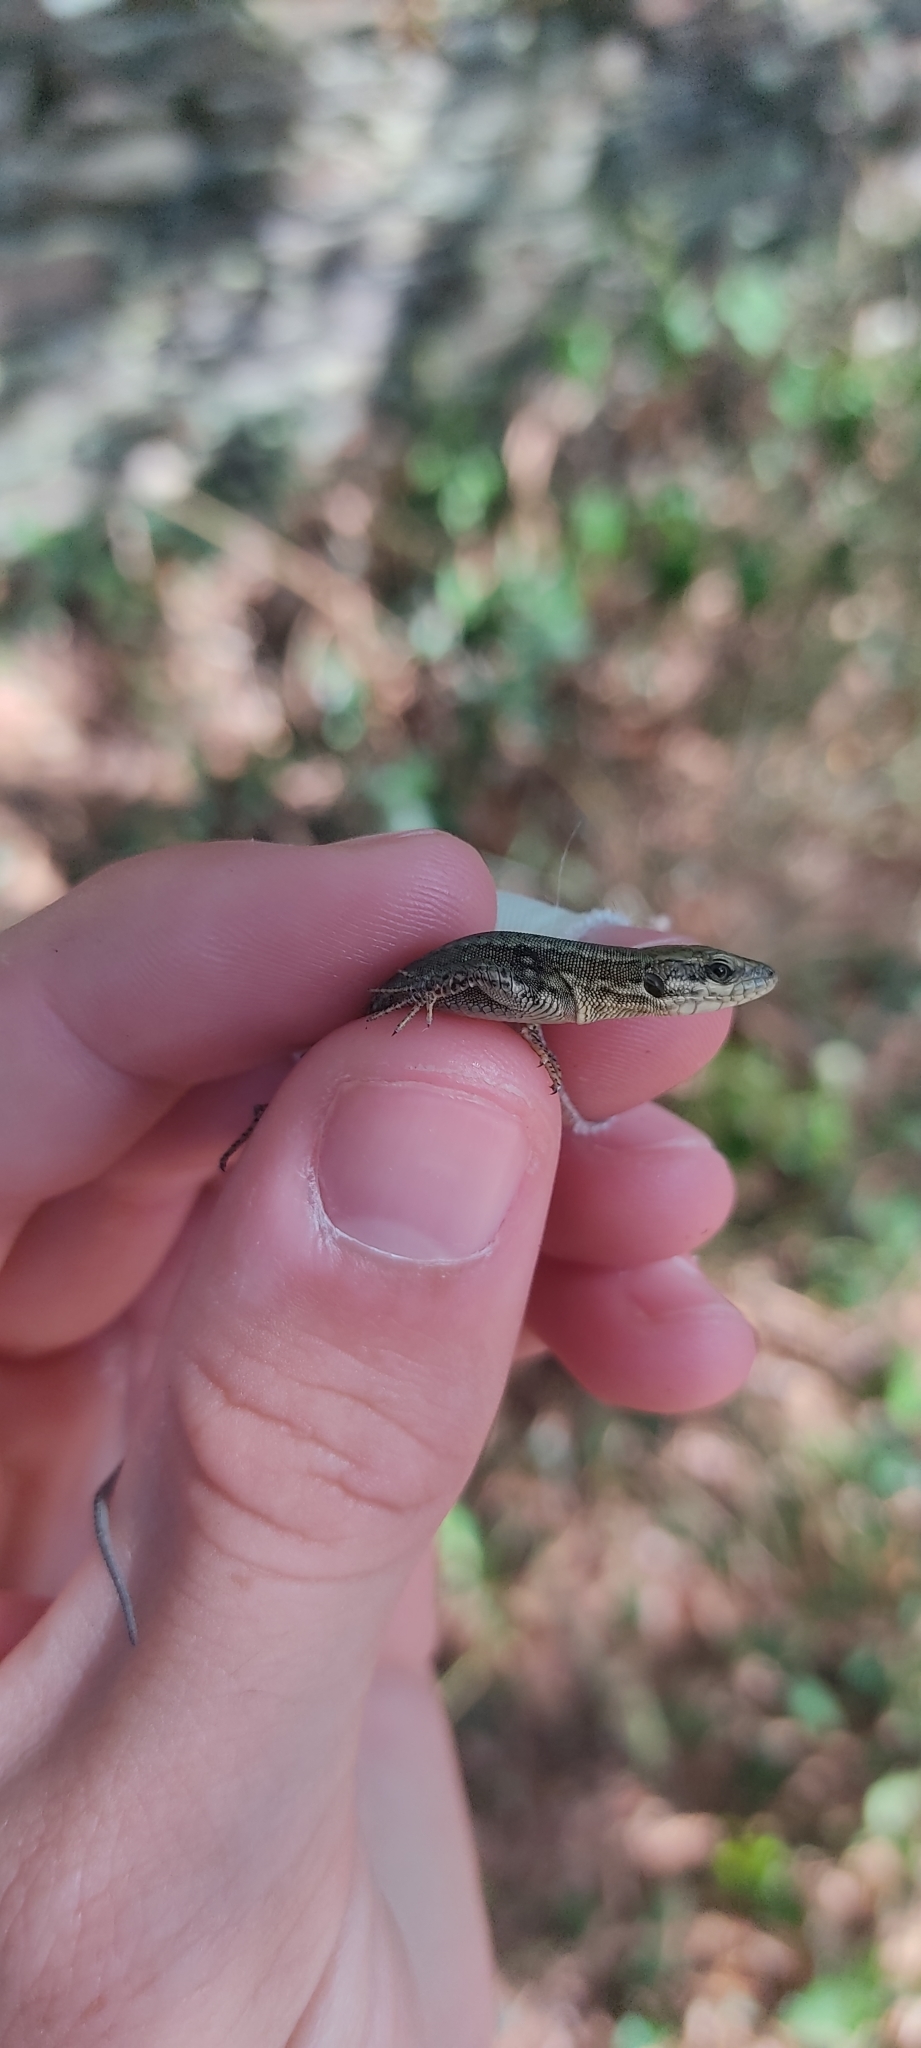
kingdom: Animalia
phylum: Chordata
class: Squamata
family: Lacertidae
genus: Podarcis
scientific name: Podarcis muralis
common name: Common wall lizard
